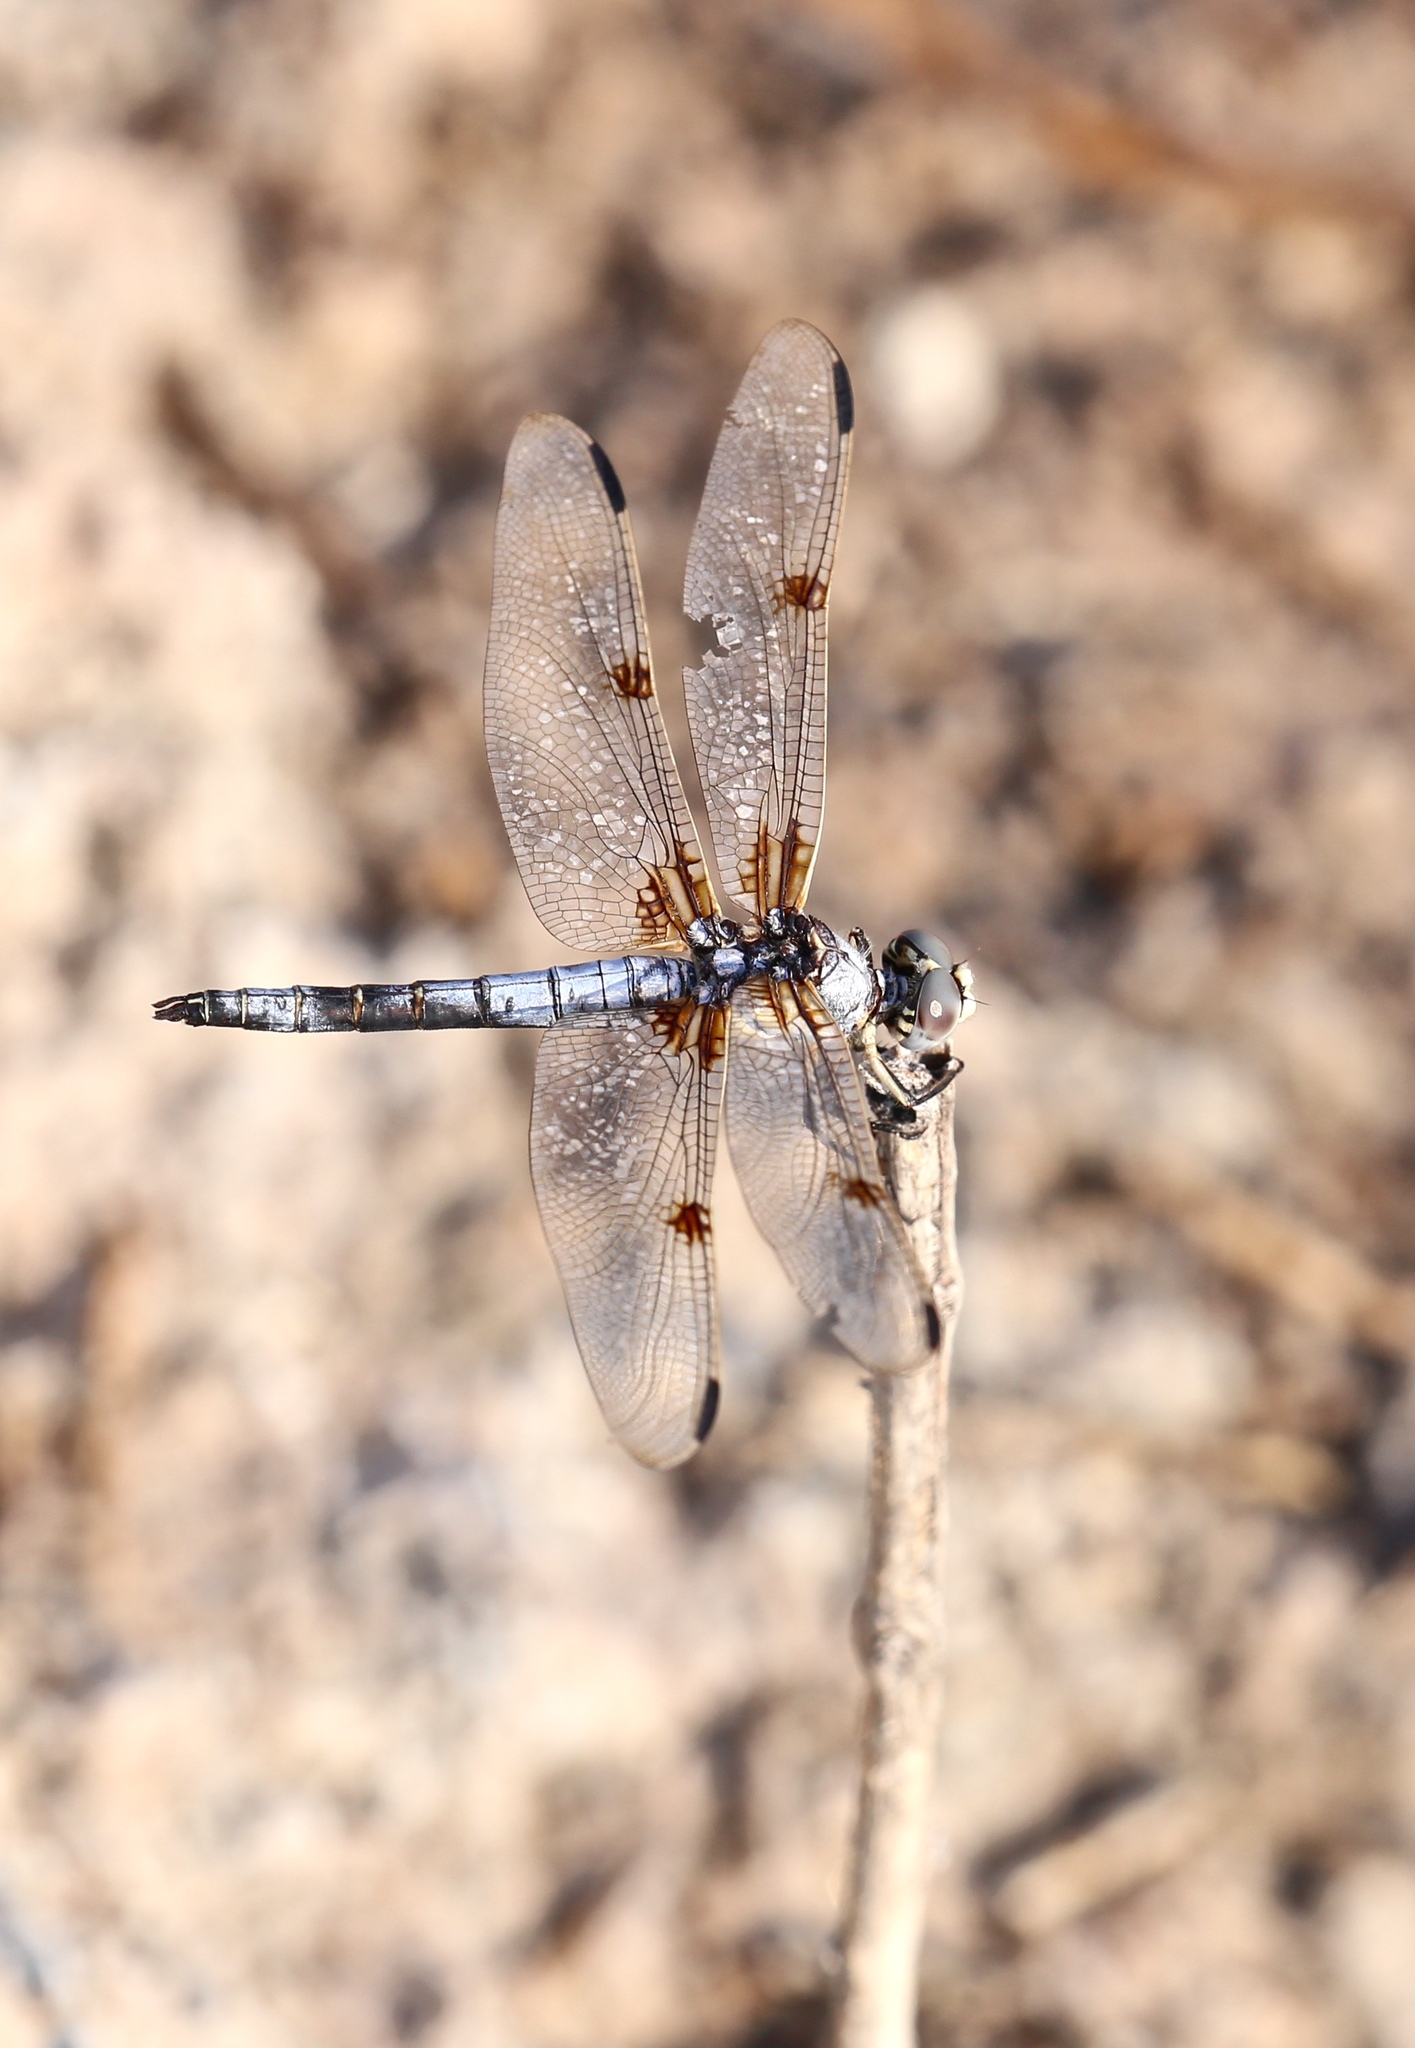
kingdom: Animalia
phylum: Arthropoda
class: Insecta
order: Odonata
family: Libellulidae
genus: Libellula
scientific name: Libellula composita
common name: Bleached skimmer
